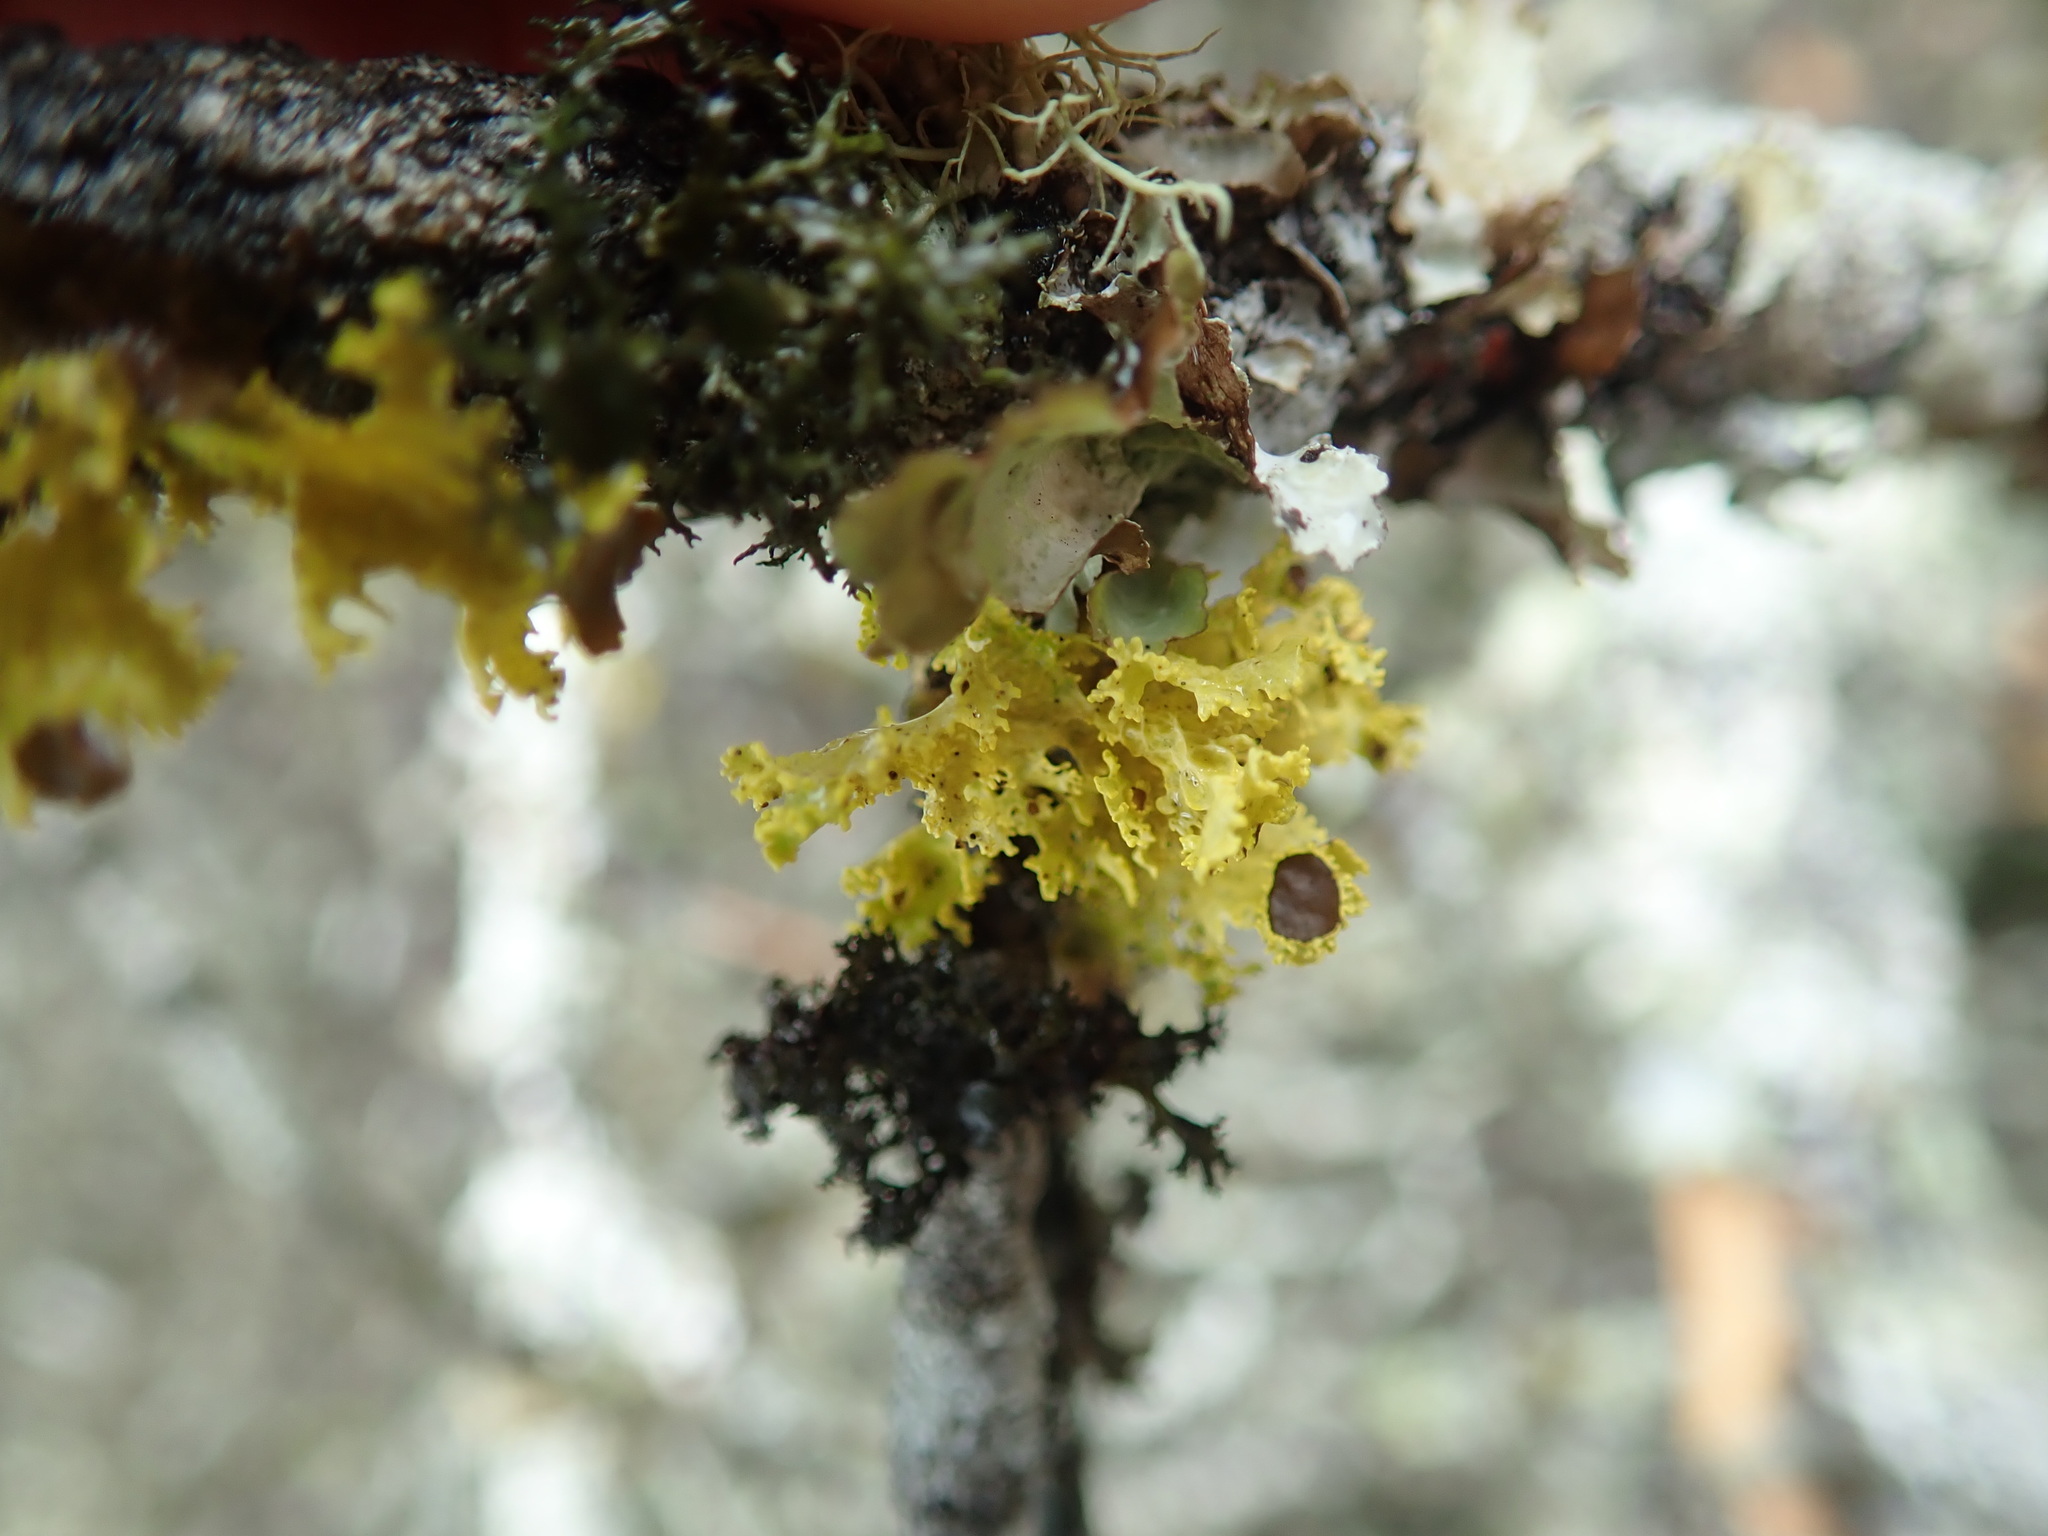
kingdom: Fungi
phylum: Ascomycota
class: Lecanoromycetes
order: Lecanorales
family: Parmeliaceae
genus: Vulpicida
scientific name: Vulpicida canadensis
